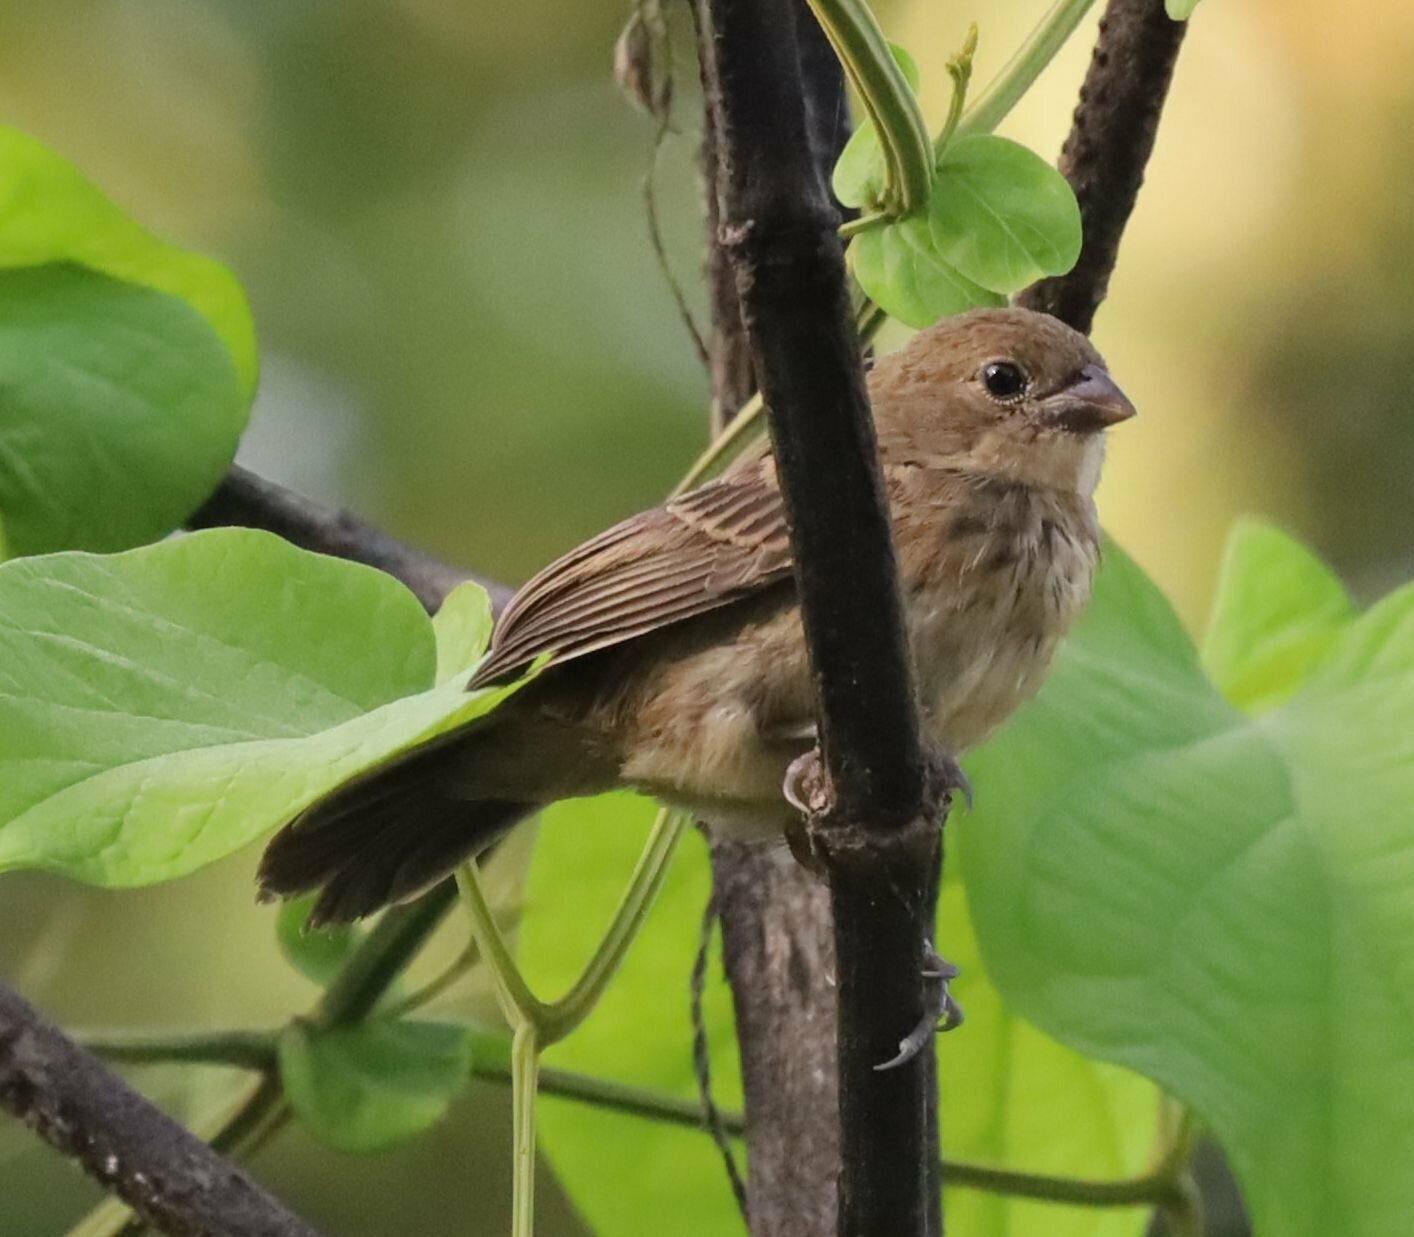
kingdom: Animalia
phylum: Chordata
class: Aves
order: Passeriformes
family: Thraupidae
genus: Volatinia
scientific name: Volatinia jacarina
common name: Blue-black grassquit
